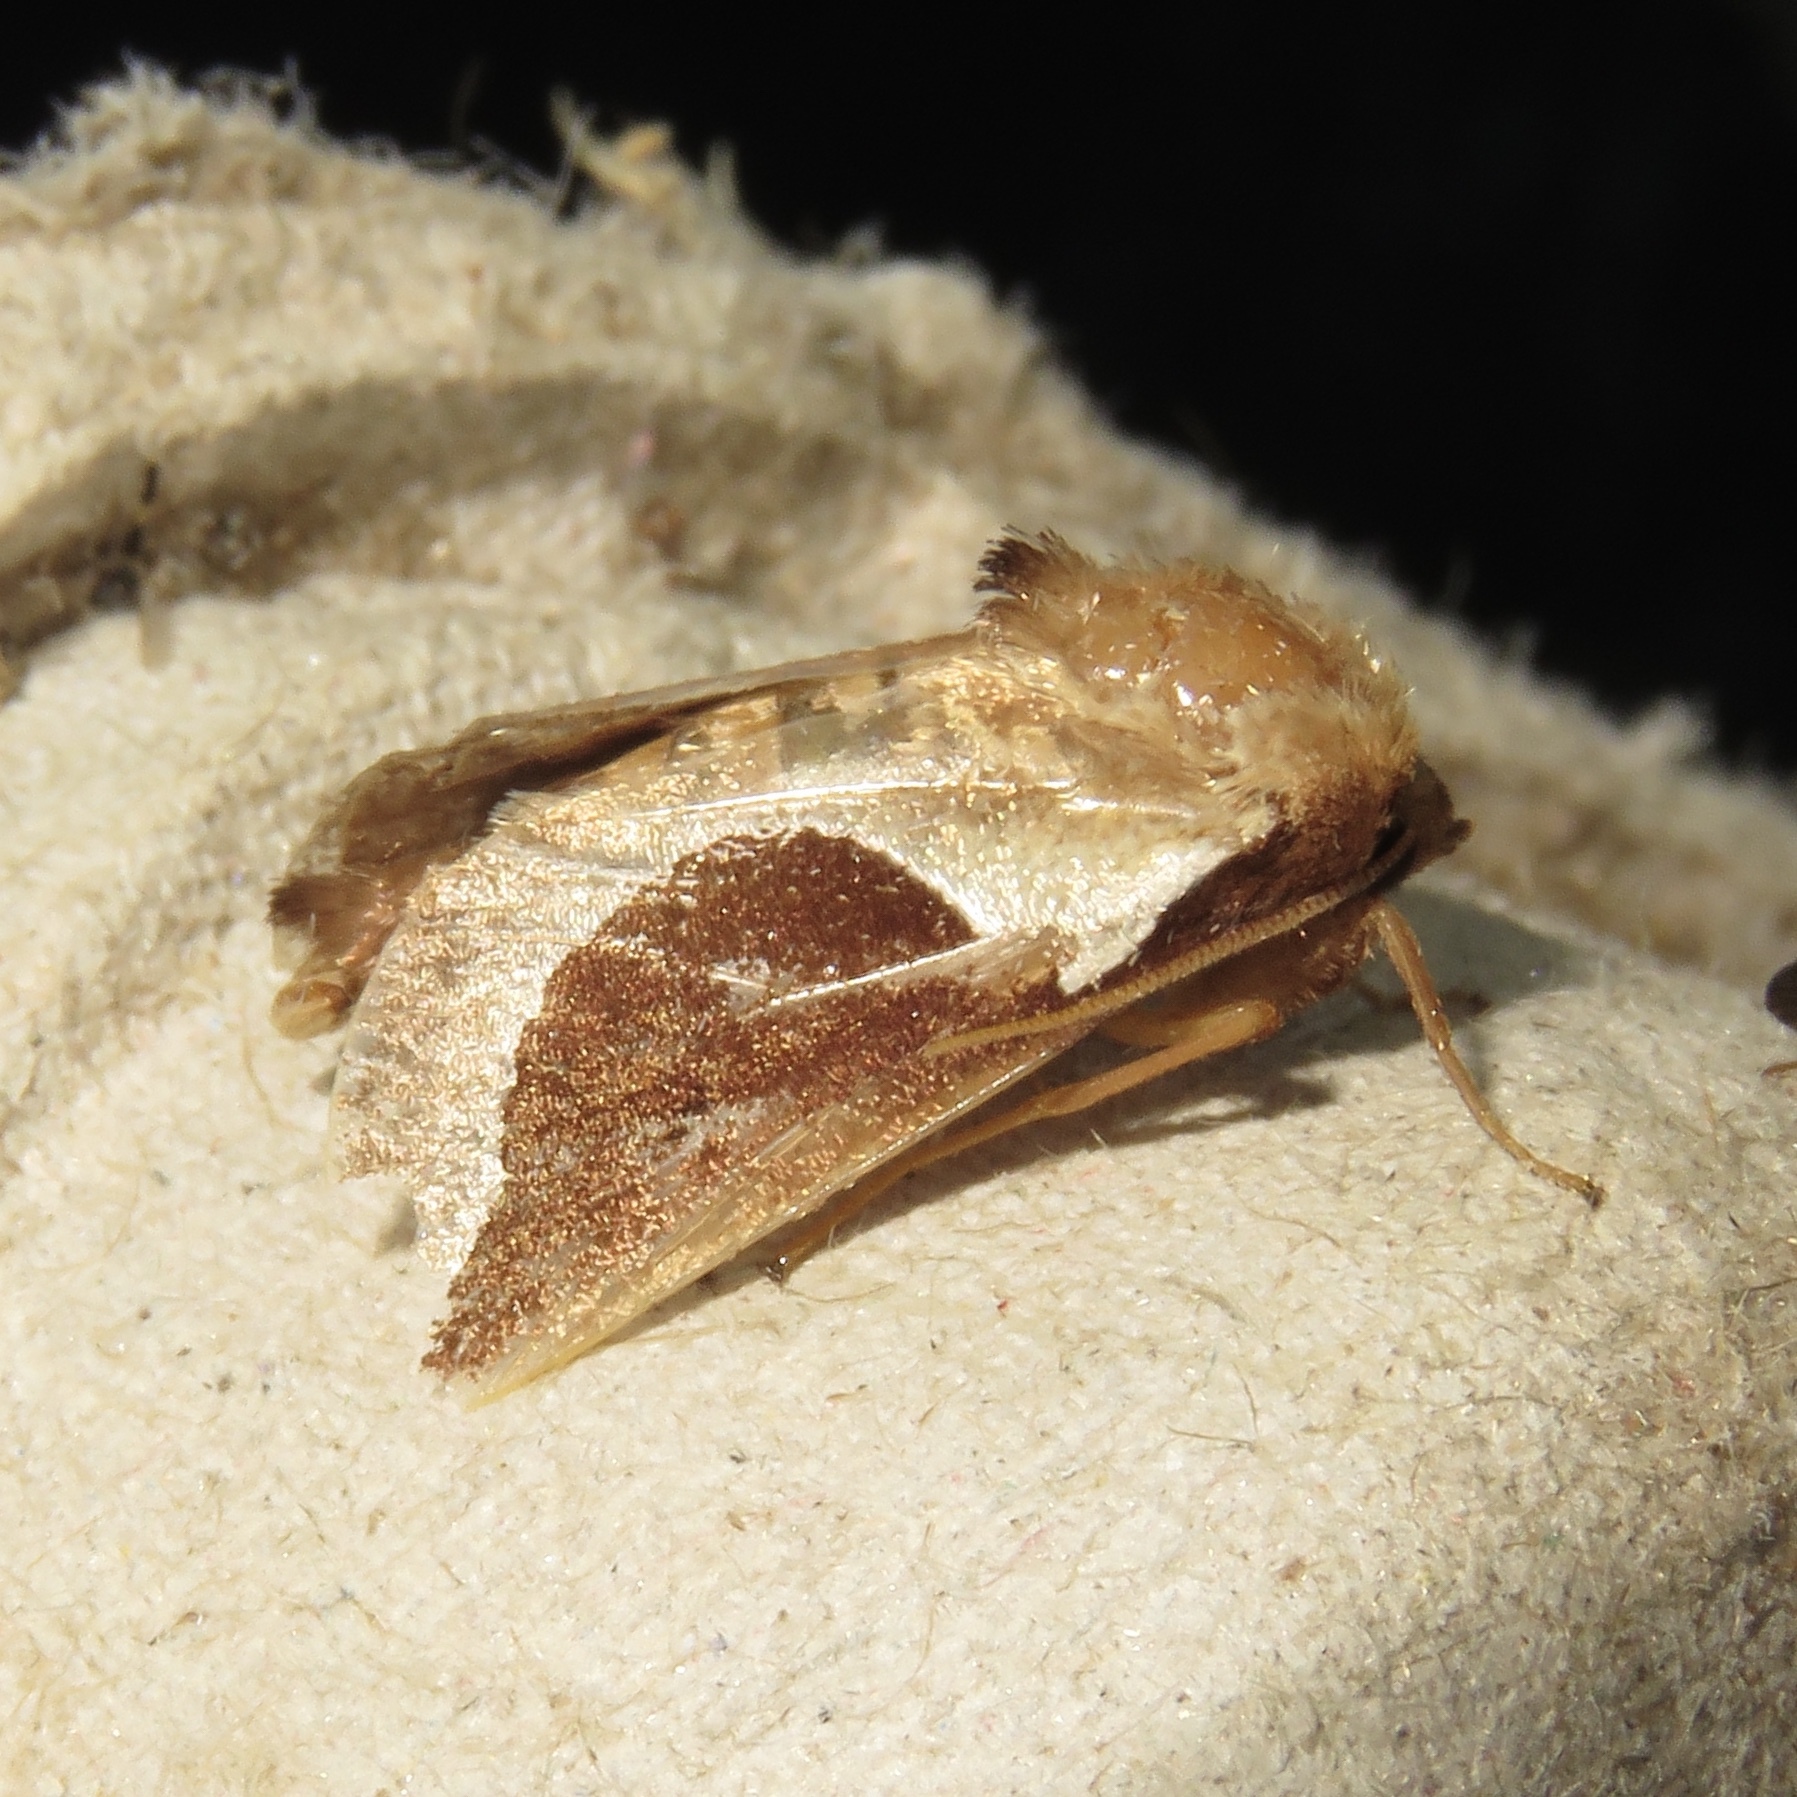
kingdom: Animalia
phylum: Arthropoda
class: Insecta
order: Lepidoptera
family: Limacodidae
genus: Prolimacodes
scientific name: Prolimacodes badia
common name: Skiff moth
